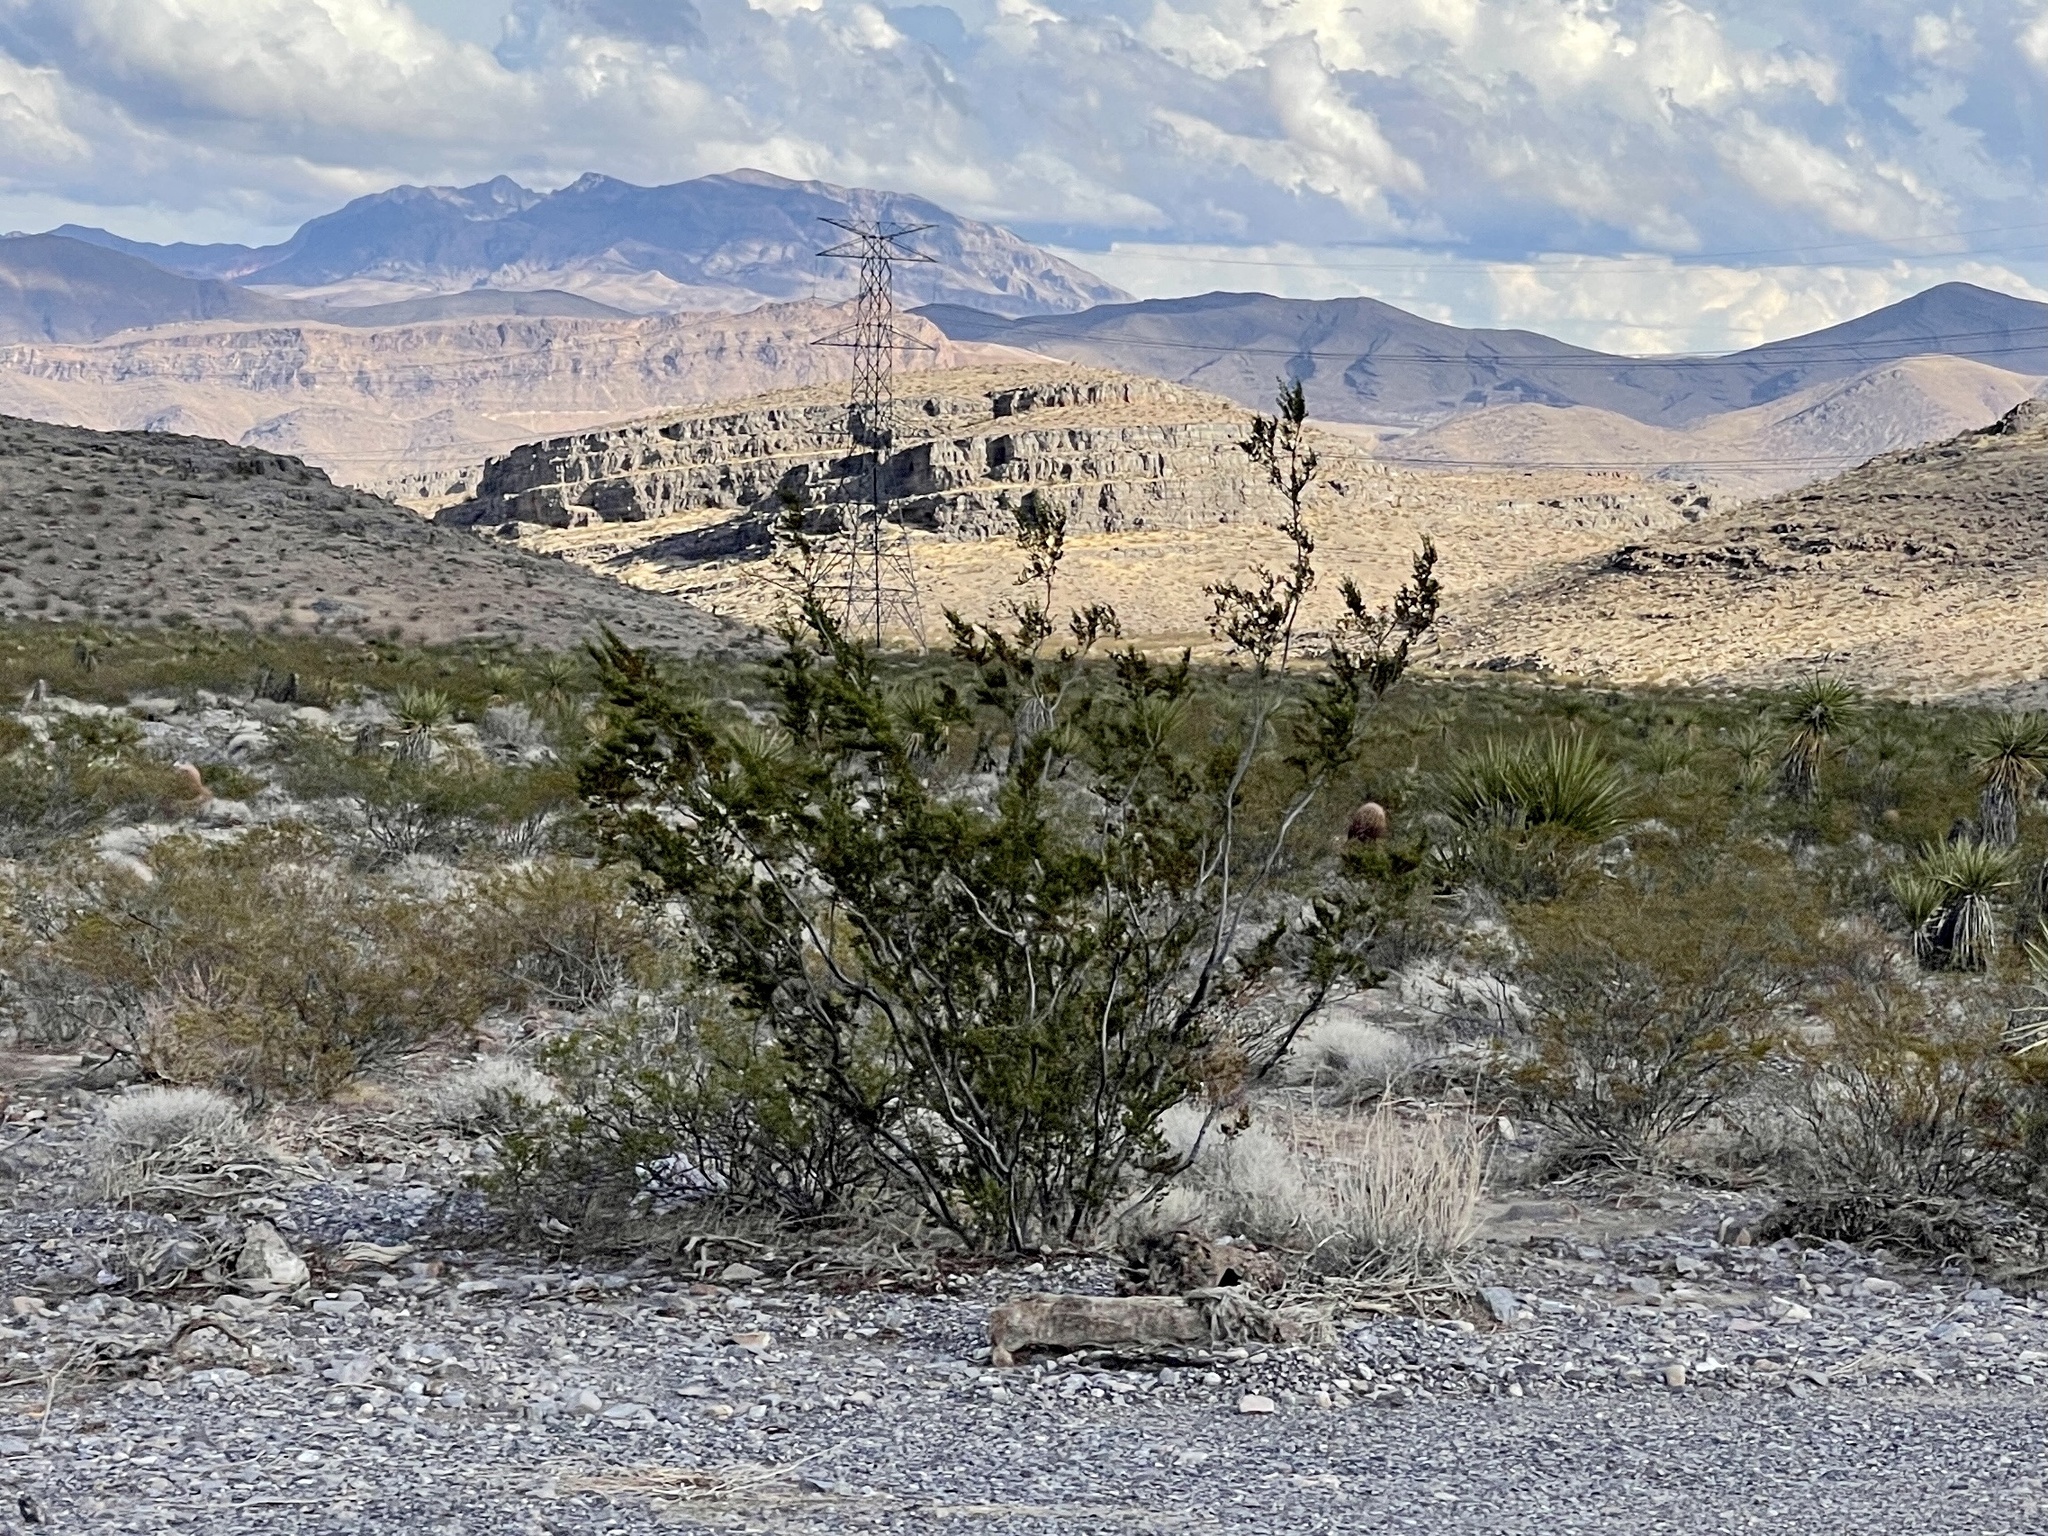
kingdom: Plantae
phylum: Tracheophyta
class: Magnoliopsida
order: Zygophyllales
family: Zygophyllaceae
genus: Larrea
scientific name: Larrea tridentata
